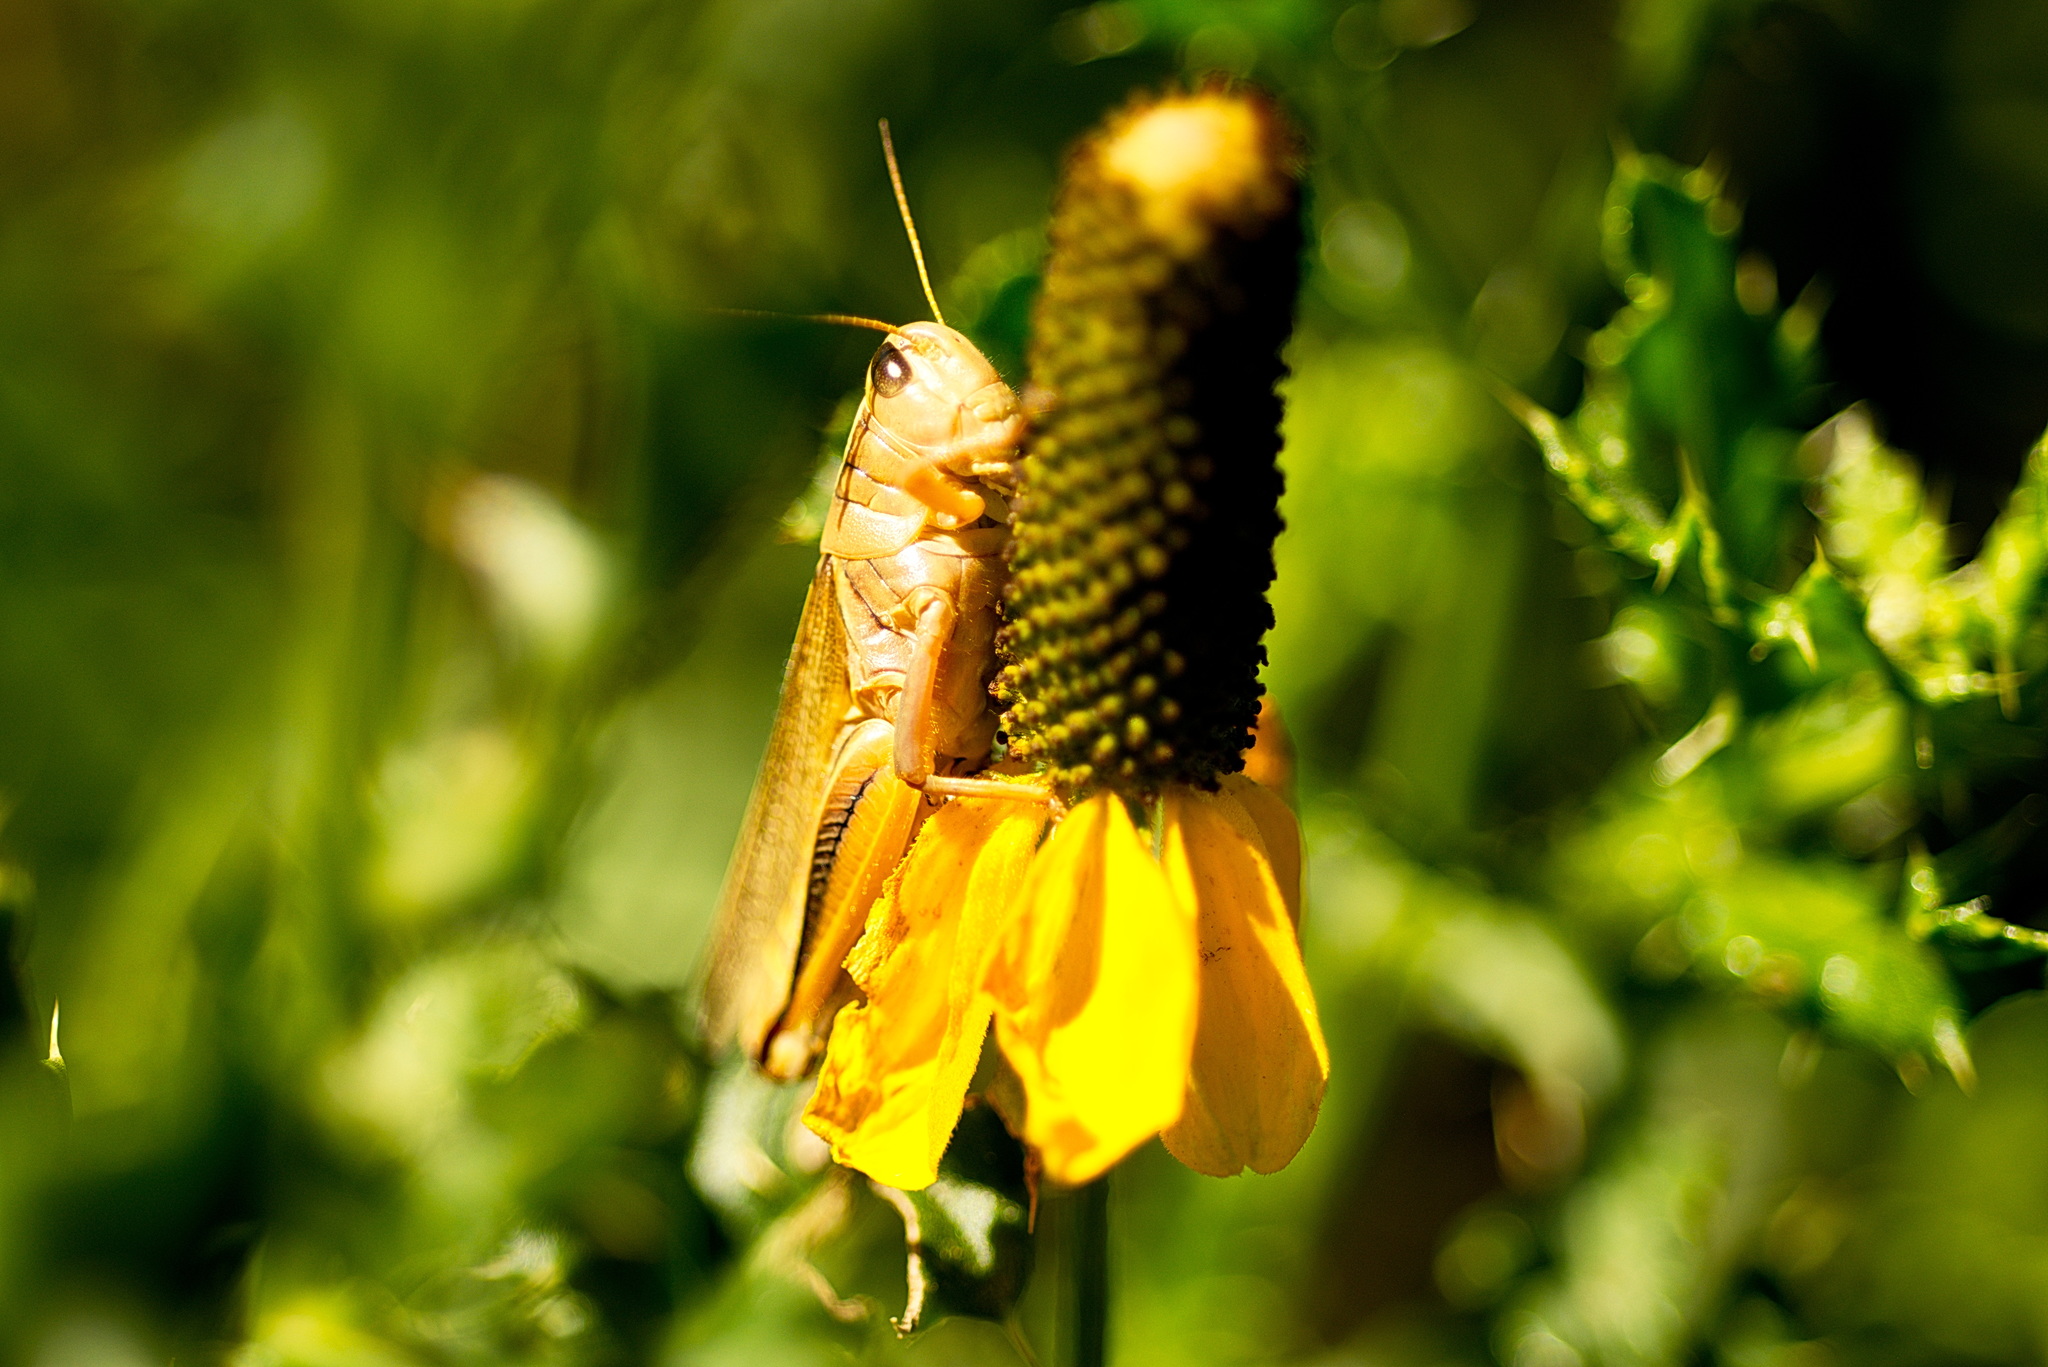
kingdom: Animalia
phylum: Arthropoda
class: Insecta
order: Orthoptera
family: Acrididae
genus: Melanoplus
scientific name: Melanoplus bivittatus
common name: Two-striped grasshopper
